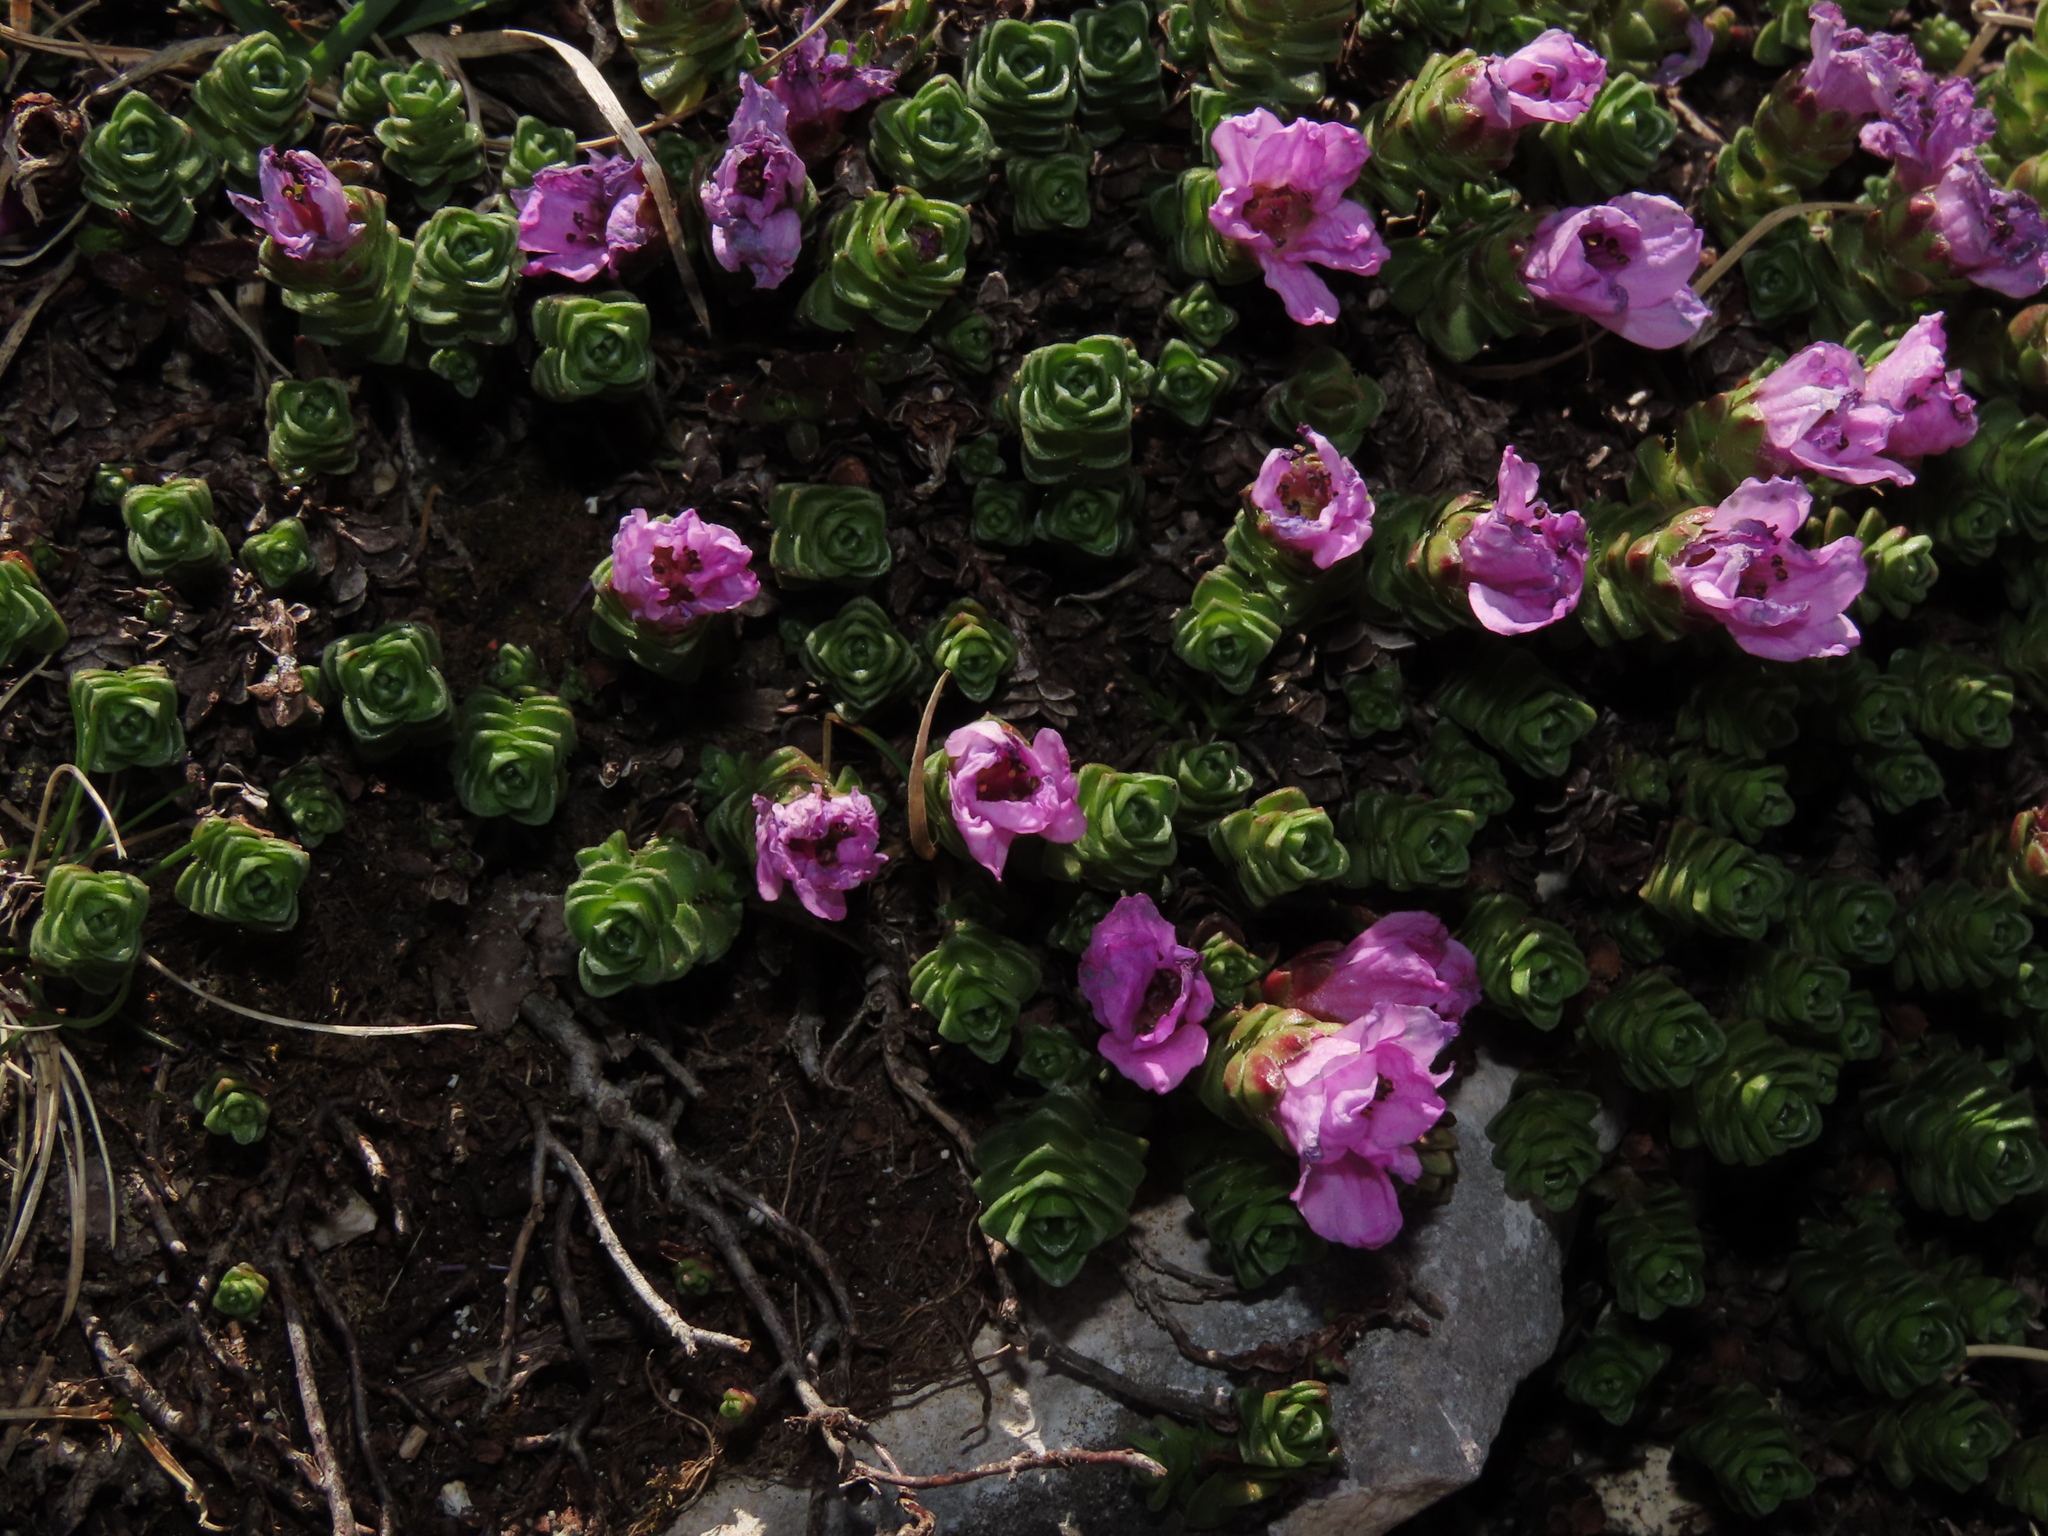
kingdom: Plantae
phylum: Tracheophyta
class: Magnoliopsida
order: Saxifragales
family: Saxifragaceae
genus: Saxifraga
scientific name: Saxifraga oppositifolia
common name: Purple saxifrage
